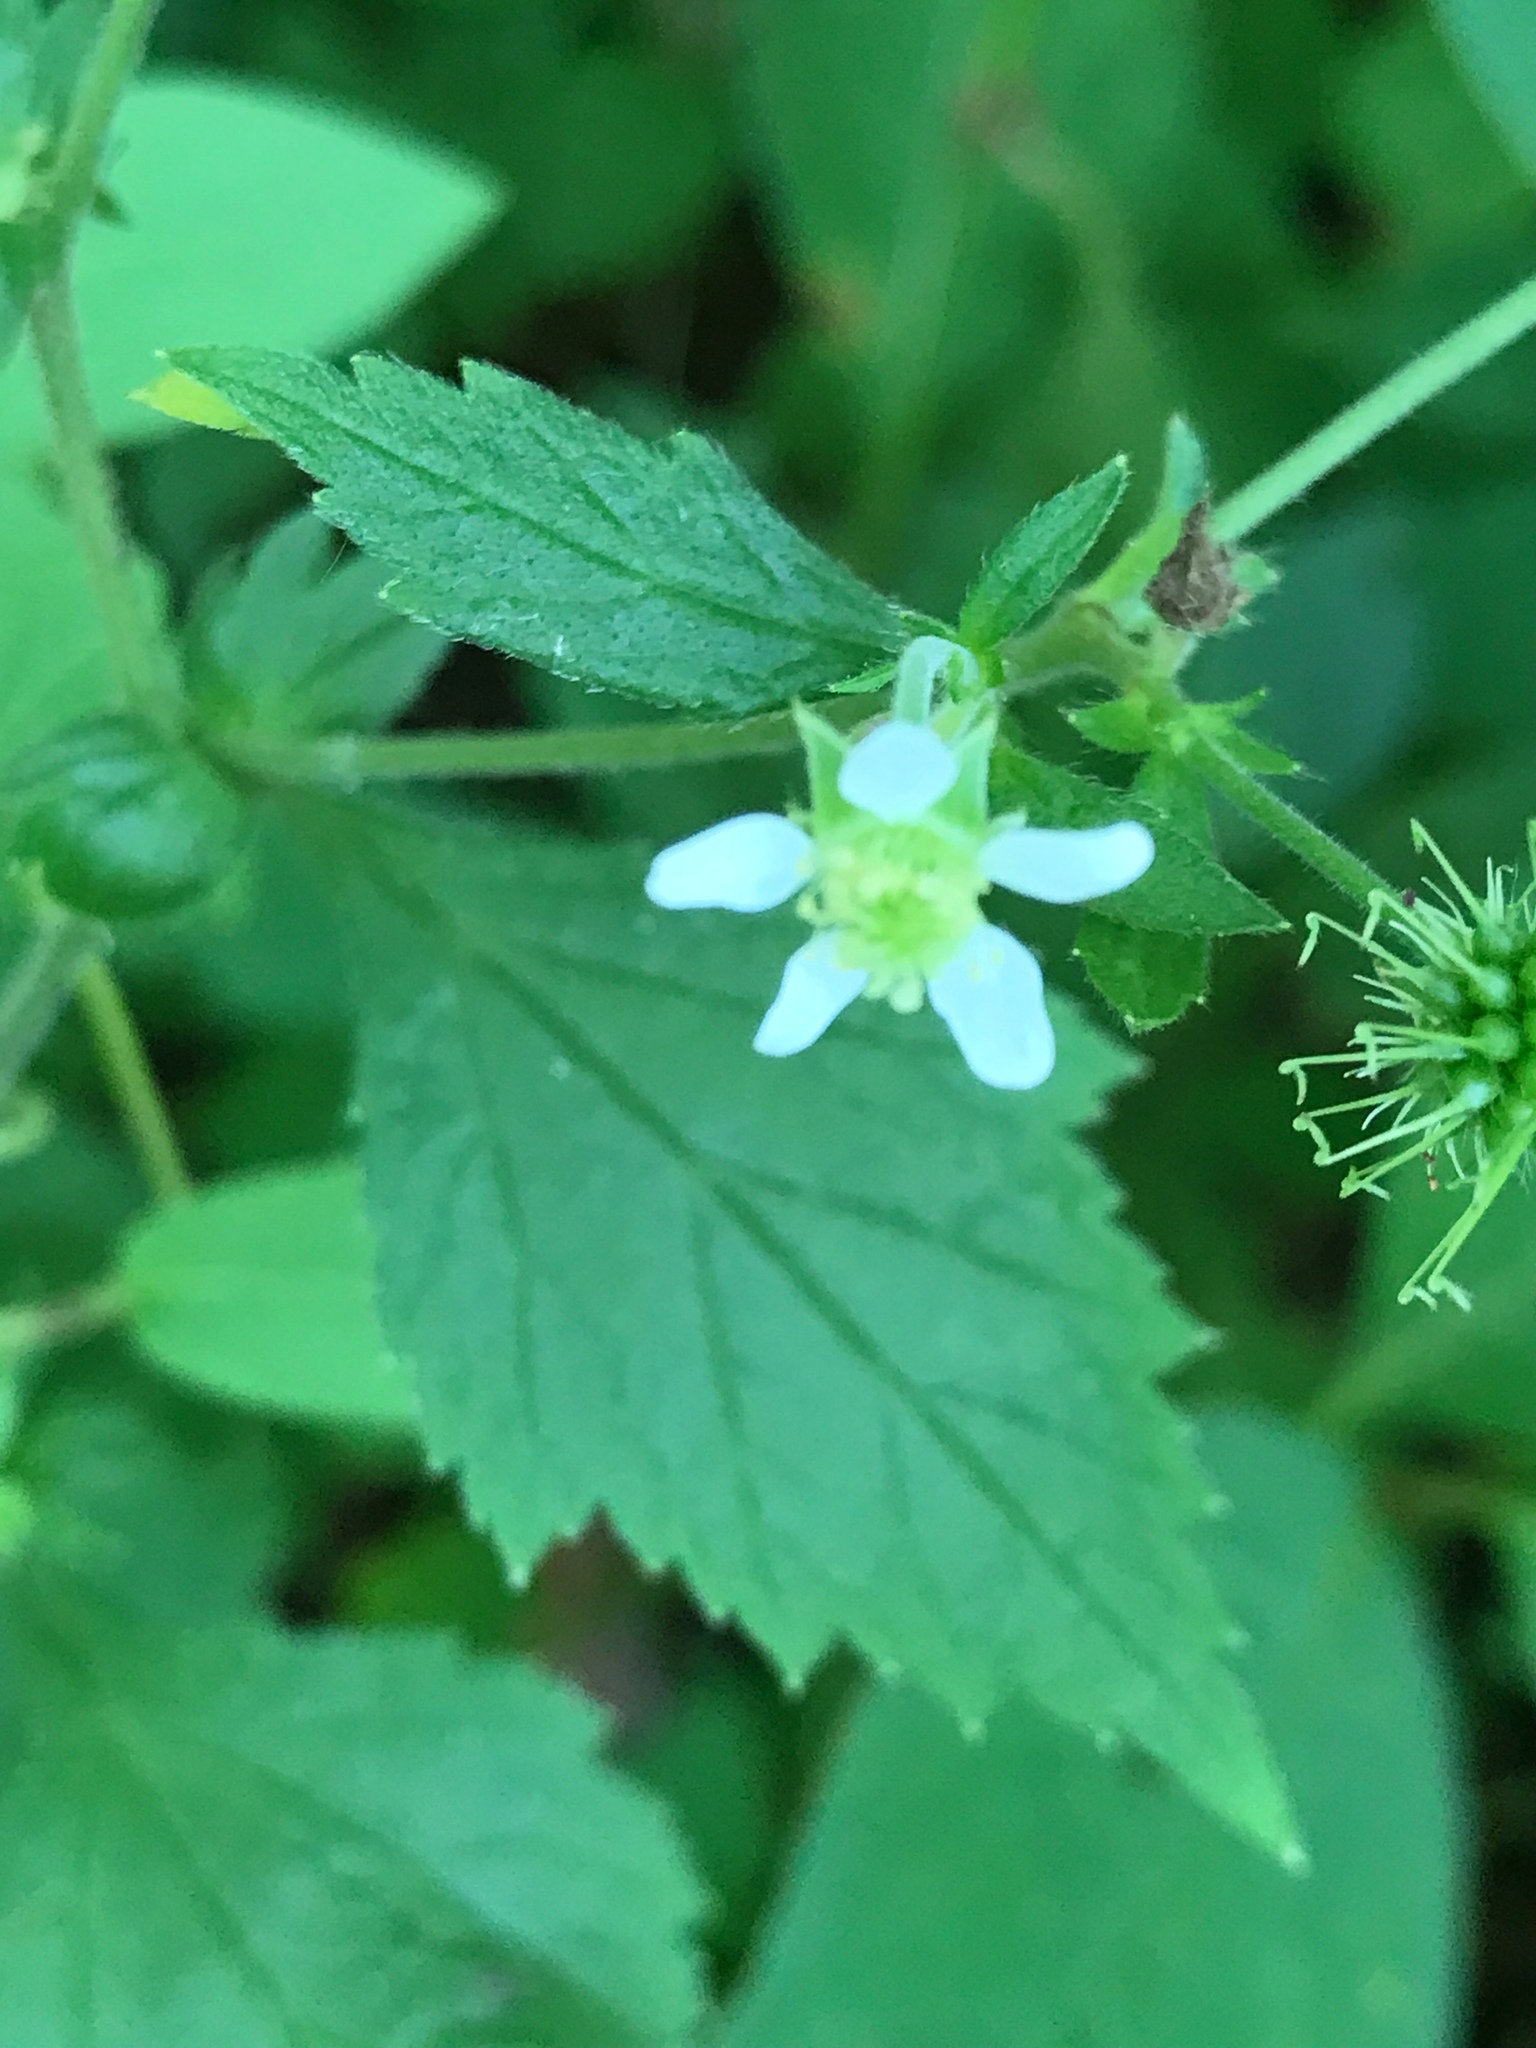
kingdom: Plantae
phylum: Tracheophyta
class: Magnoliopsida
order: Rosales
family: Rosaceae
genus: Geum
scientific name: Geum canadense
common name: White avens
